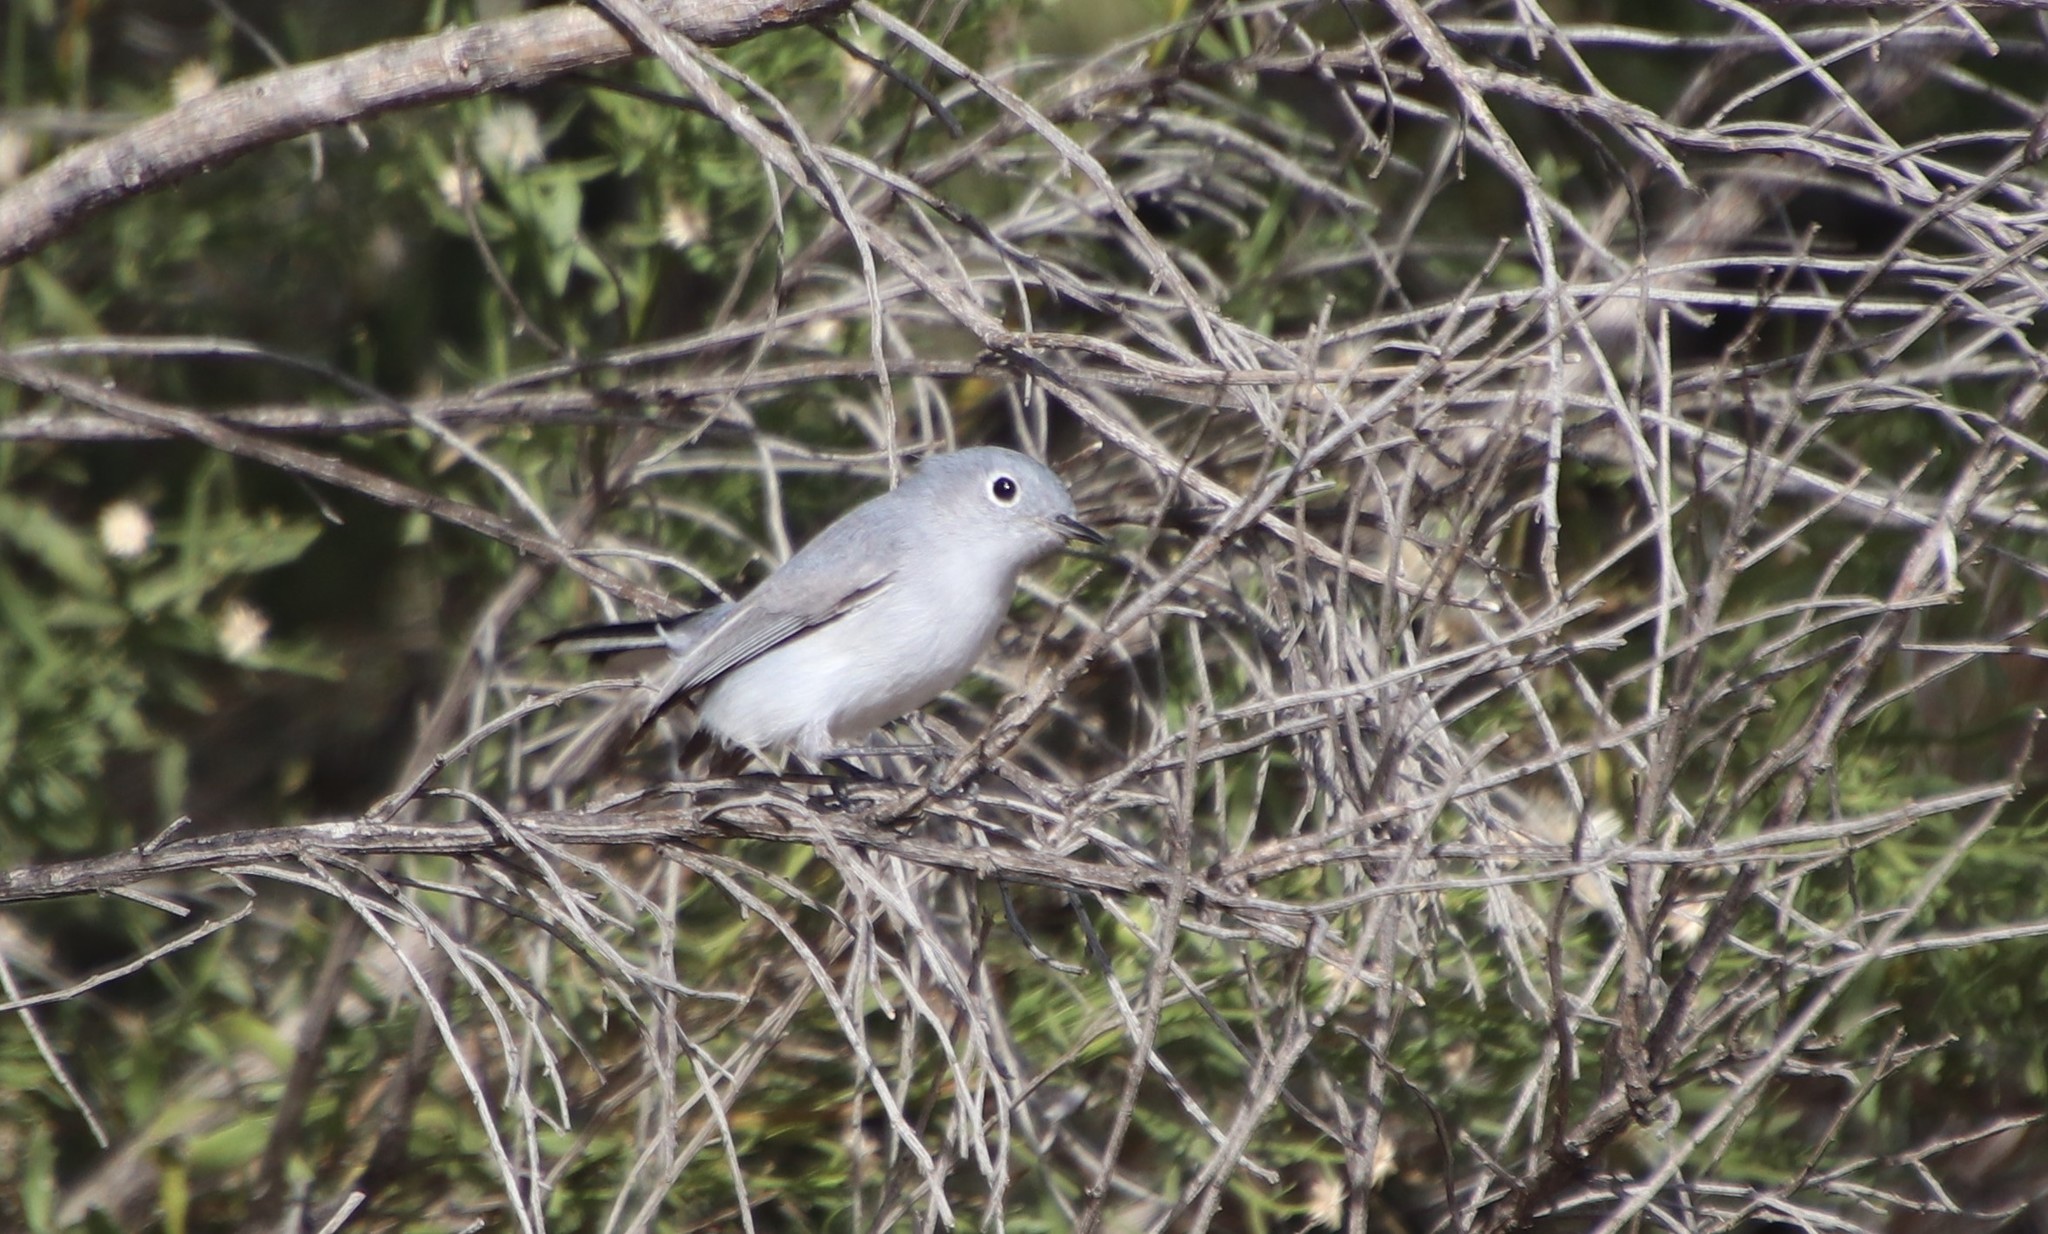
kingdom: Animalia
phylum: Chordata
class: Aves
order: Passeriformes
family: Polioptilidae
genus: Polioptila
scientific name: Polioptila caerulea
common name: Blue-gray gnatcatcher
